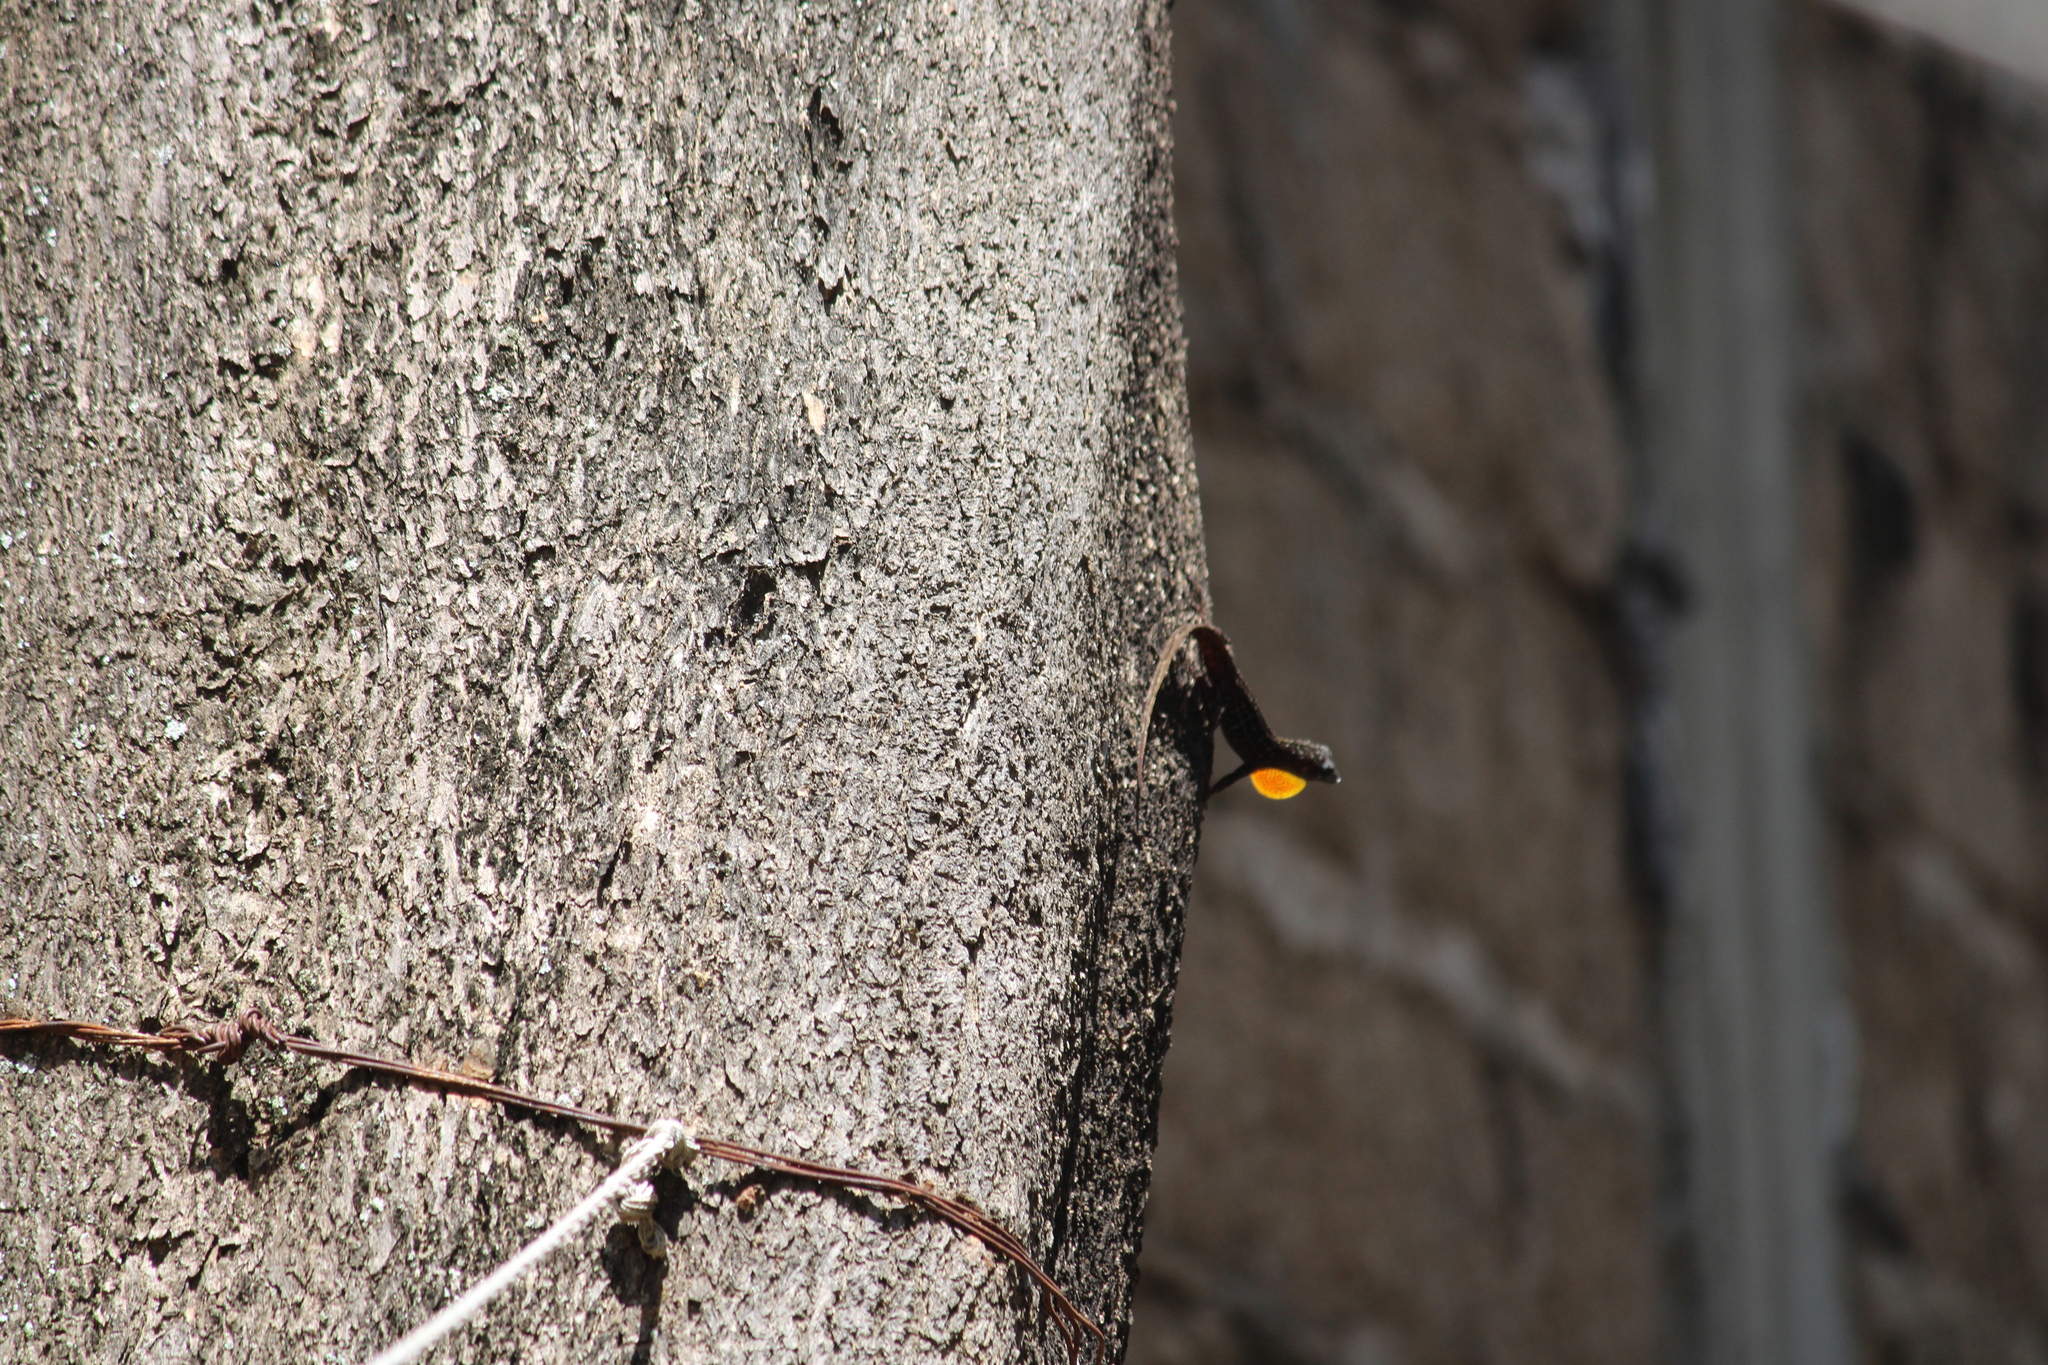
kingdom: Animalia
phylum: Chordata
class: Squamata
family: Dactyloidae
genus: Anolis
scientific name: Anolis sagrei
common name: Brown anole
